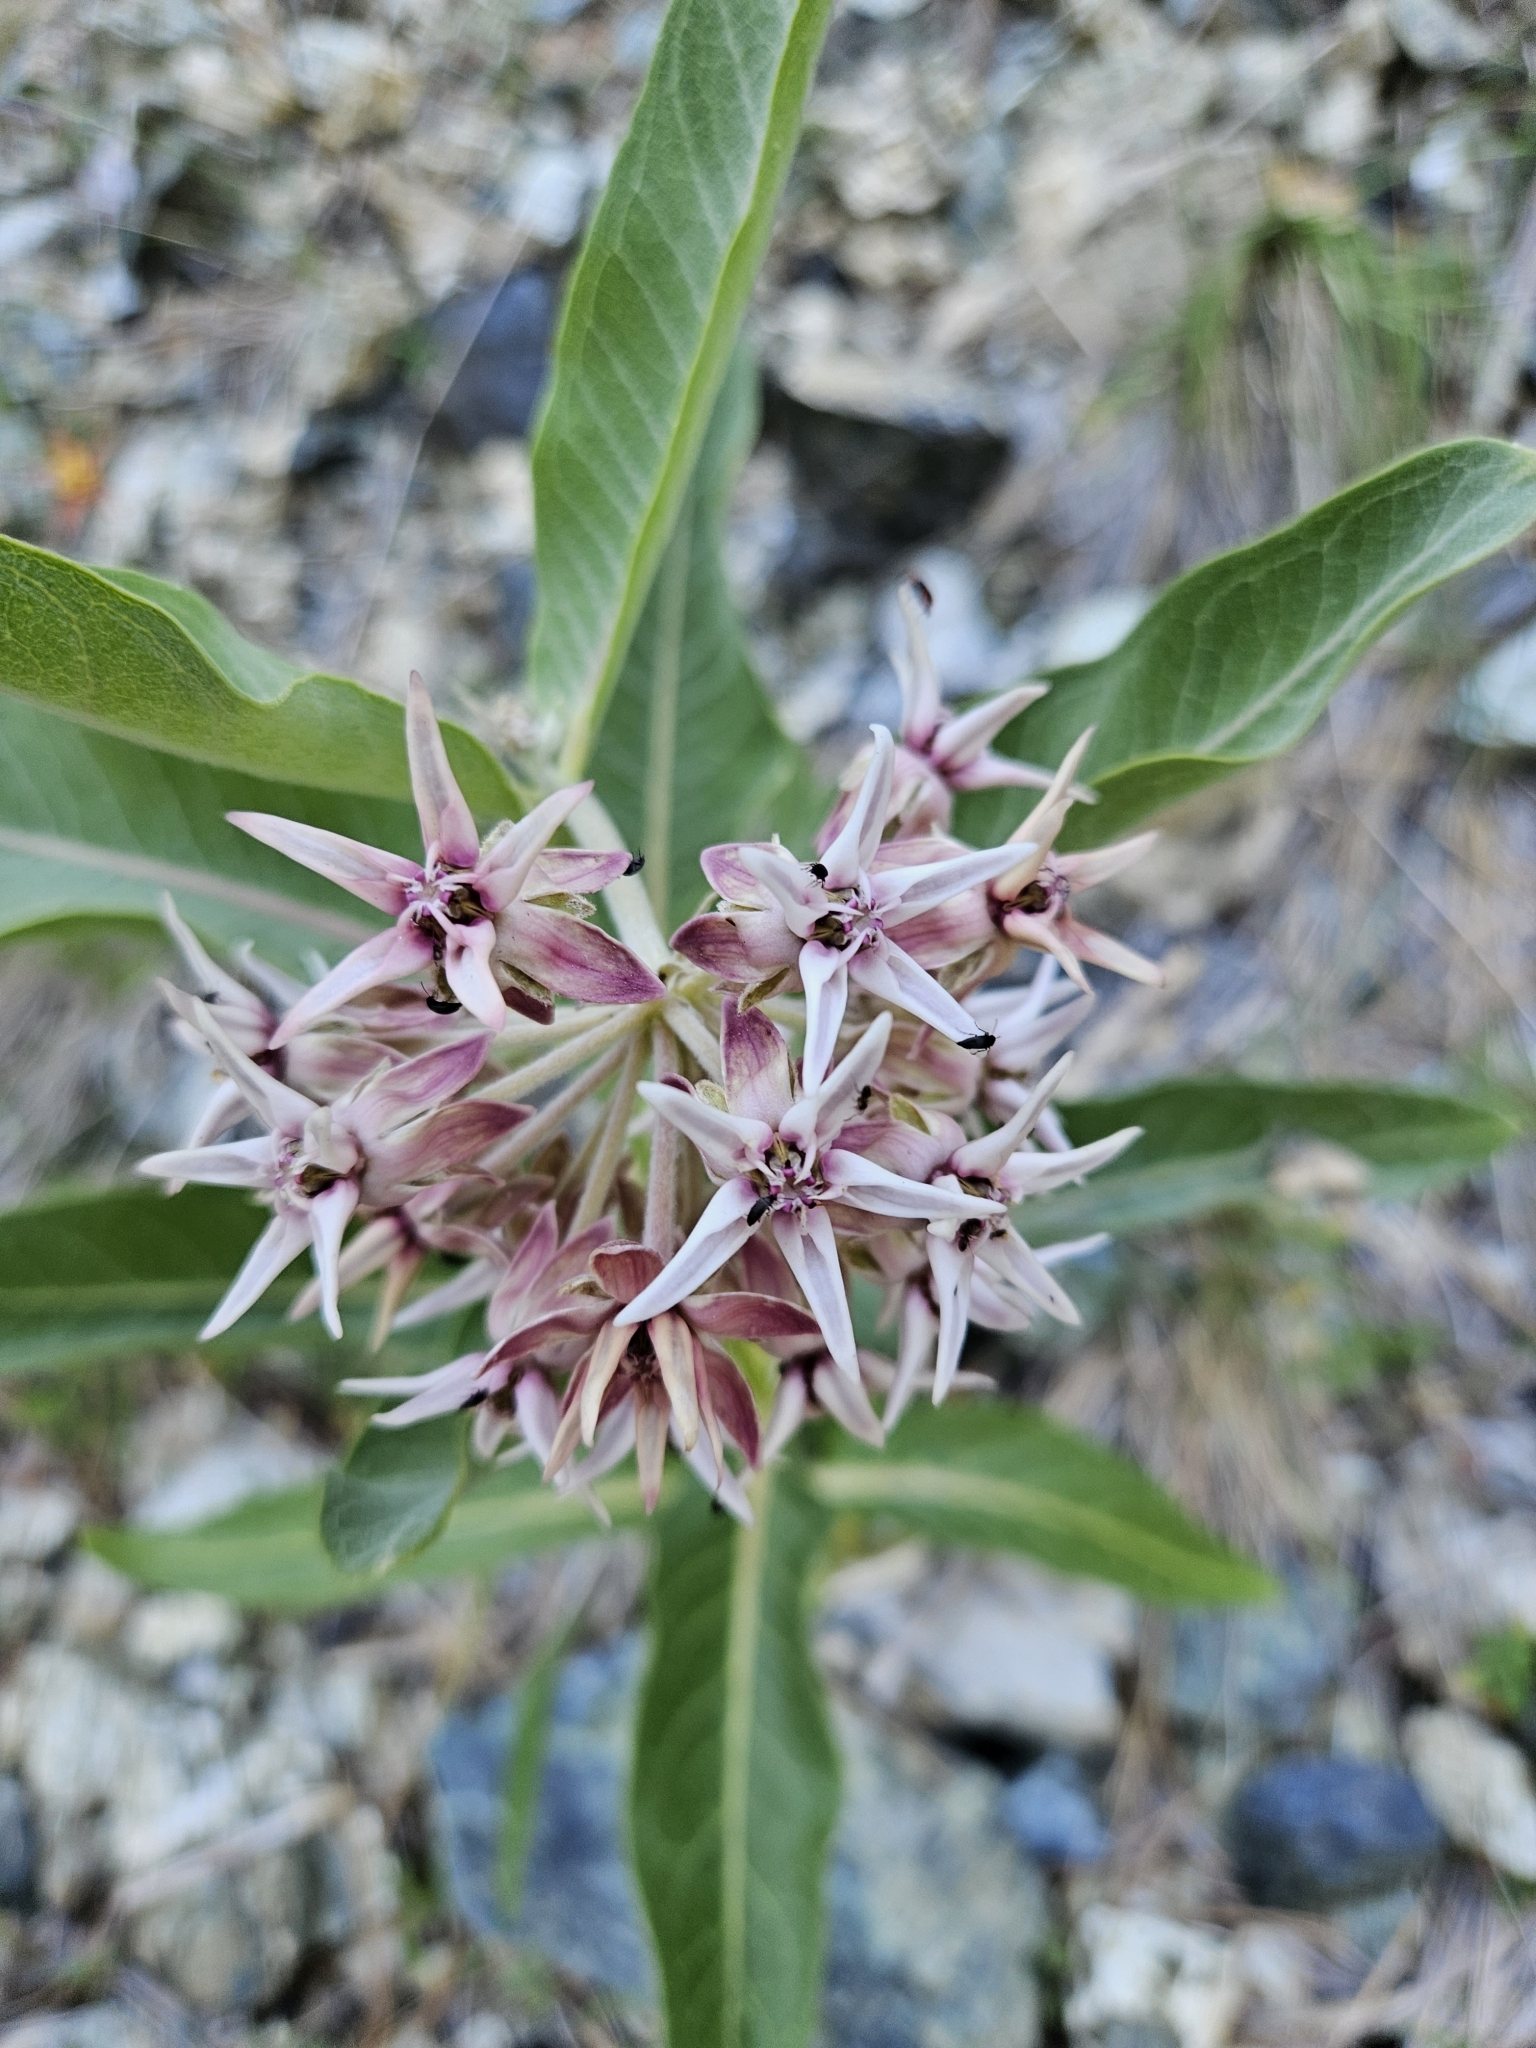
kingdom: Plantae
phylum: Tracheophyta
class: Magnoliopsida
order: Gentianales
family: Apocynaceae
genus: Asclepias
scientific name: Asclepias speciosa
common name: Showy milkweed
